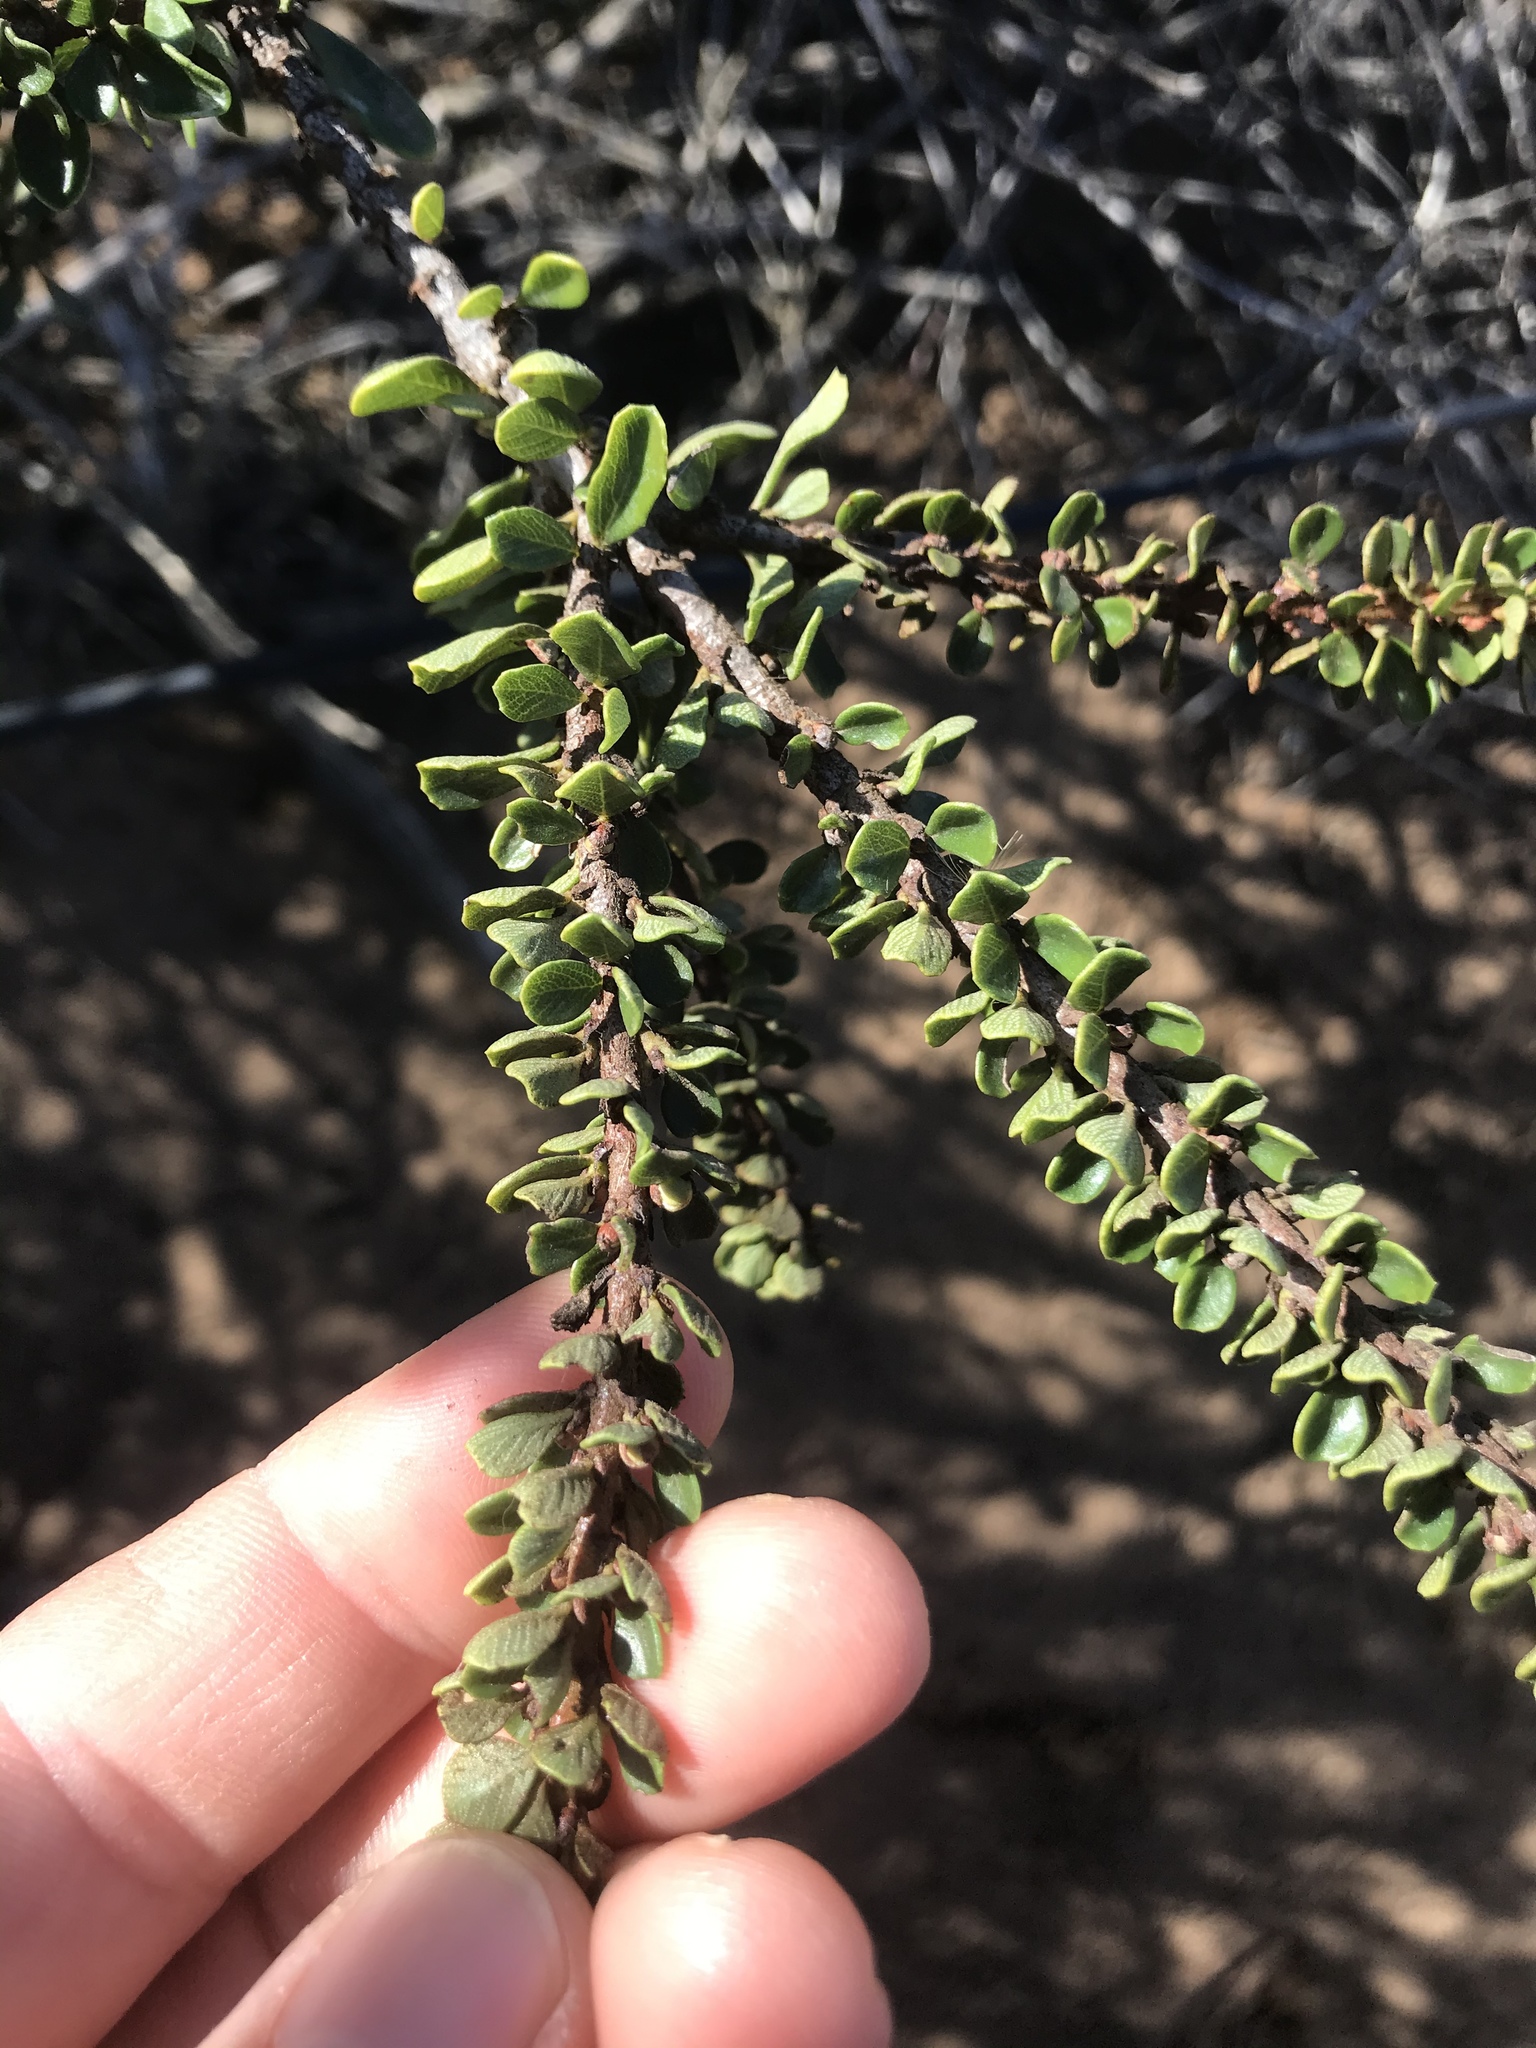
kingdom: Plantae
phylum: Tracheophyta
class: Magnoliopsida
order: Rosales
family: Rhamnaceae
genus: Ceanothus
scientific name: Ceanothus cuneatus
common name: Cuneate ceanothus
